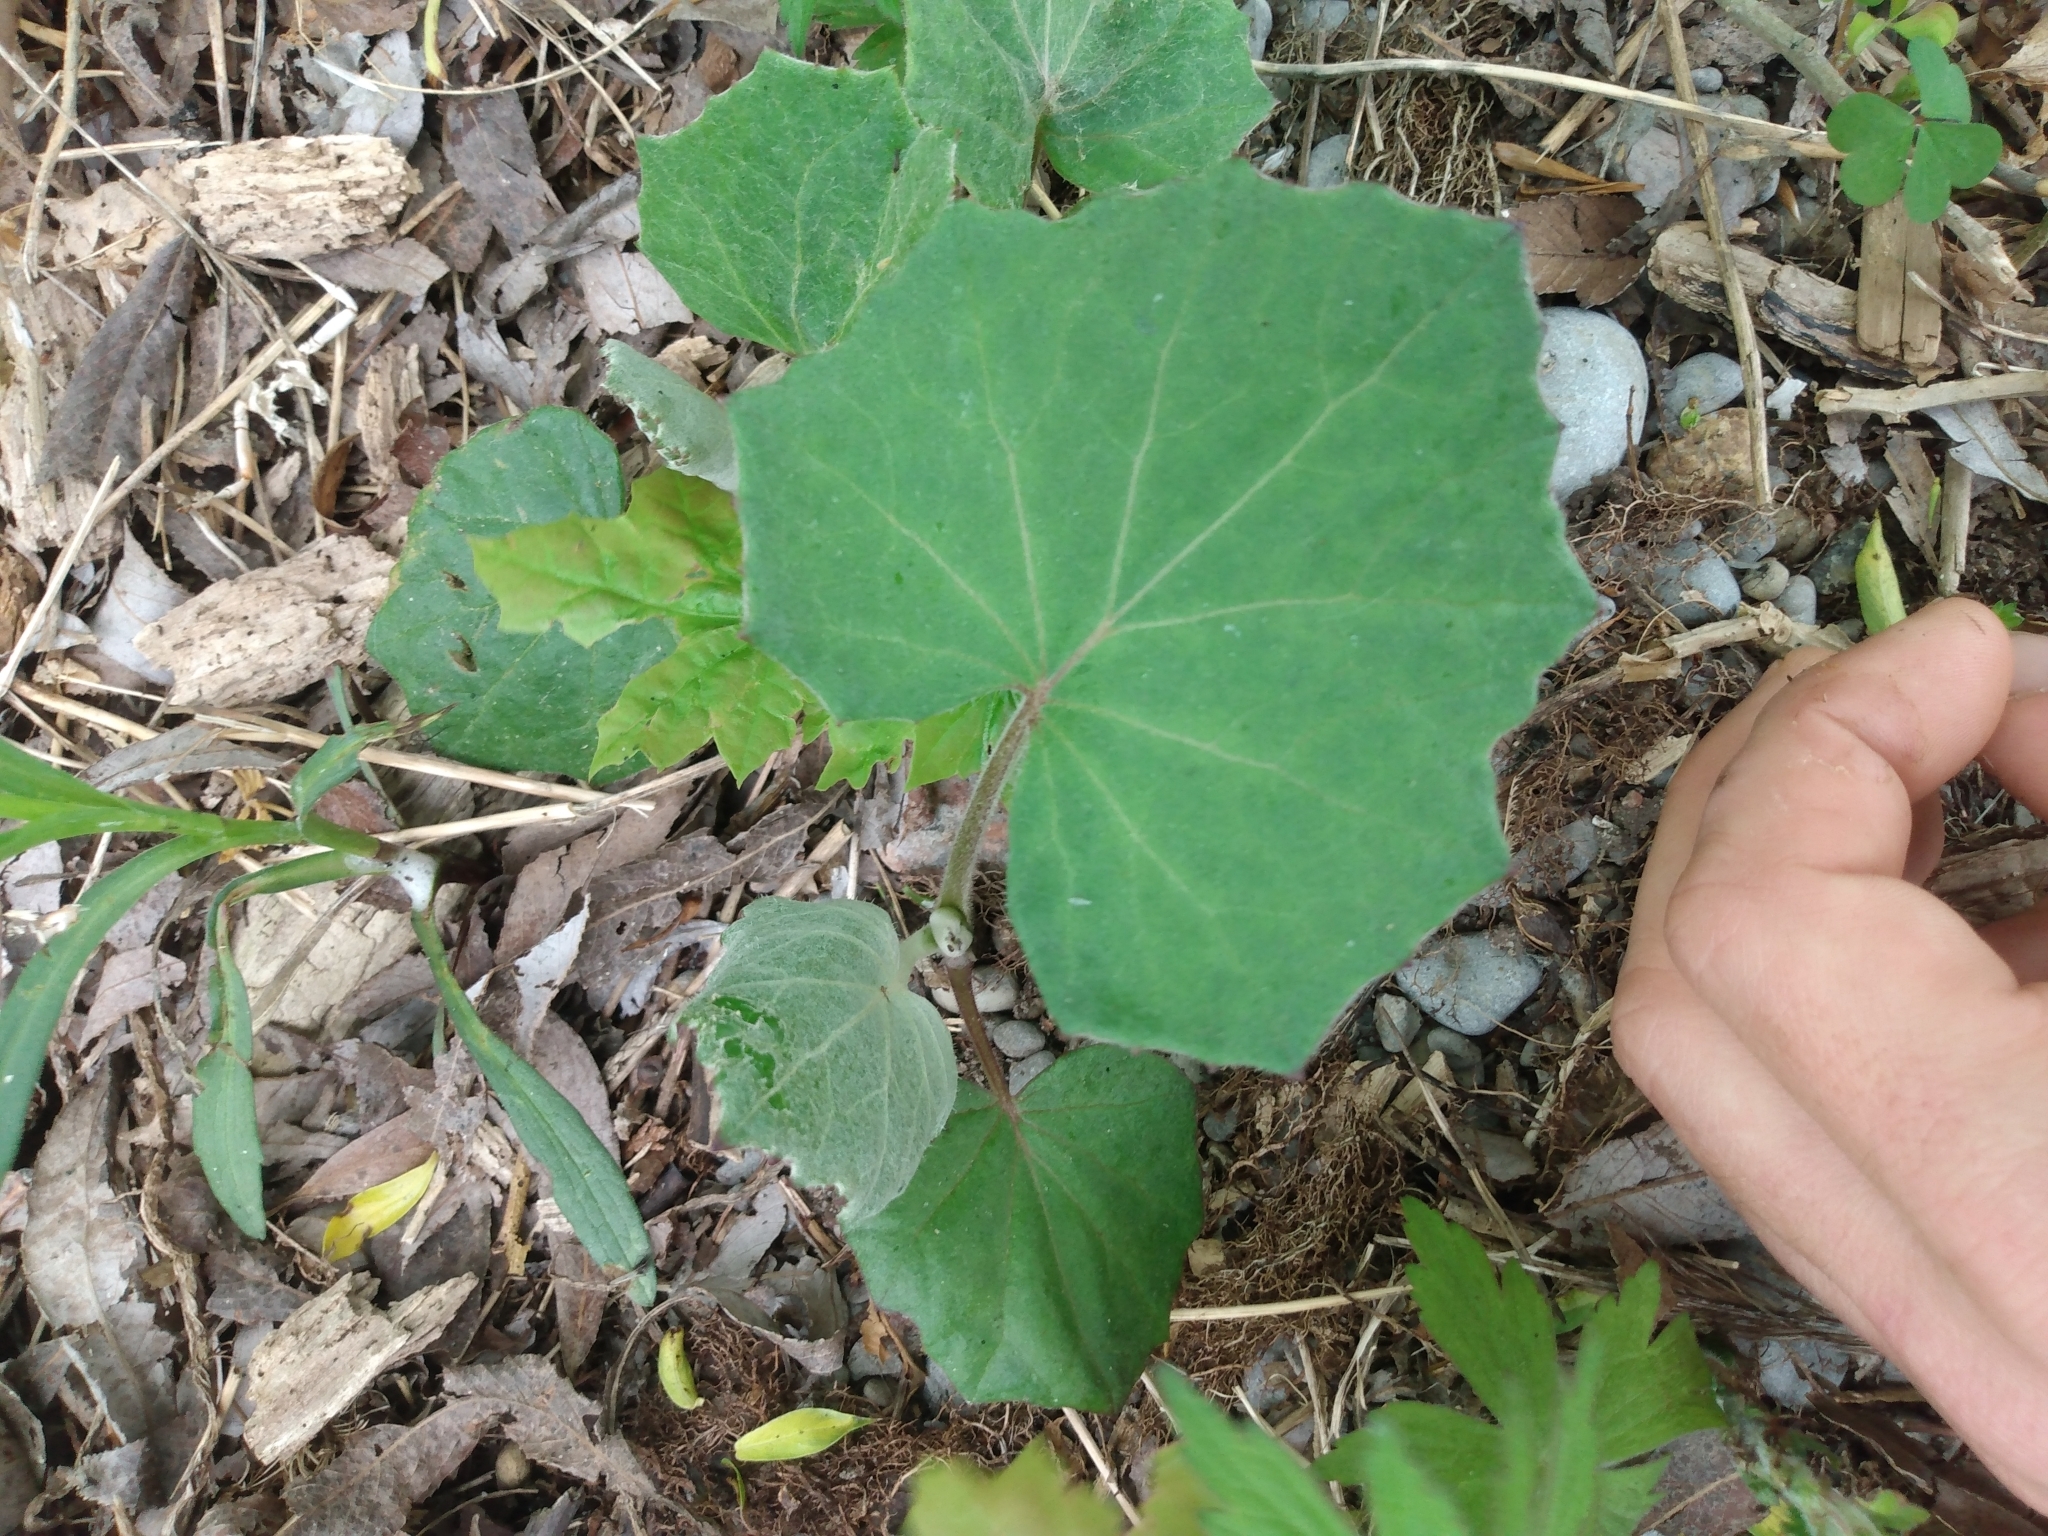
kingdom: Plantae
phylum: Tracheophyta
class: Magnoliopsida
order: Asterales
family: Asteraceae
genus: Tussilago
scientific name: Tussilago farfara
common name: Coltsfoot
